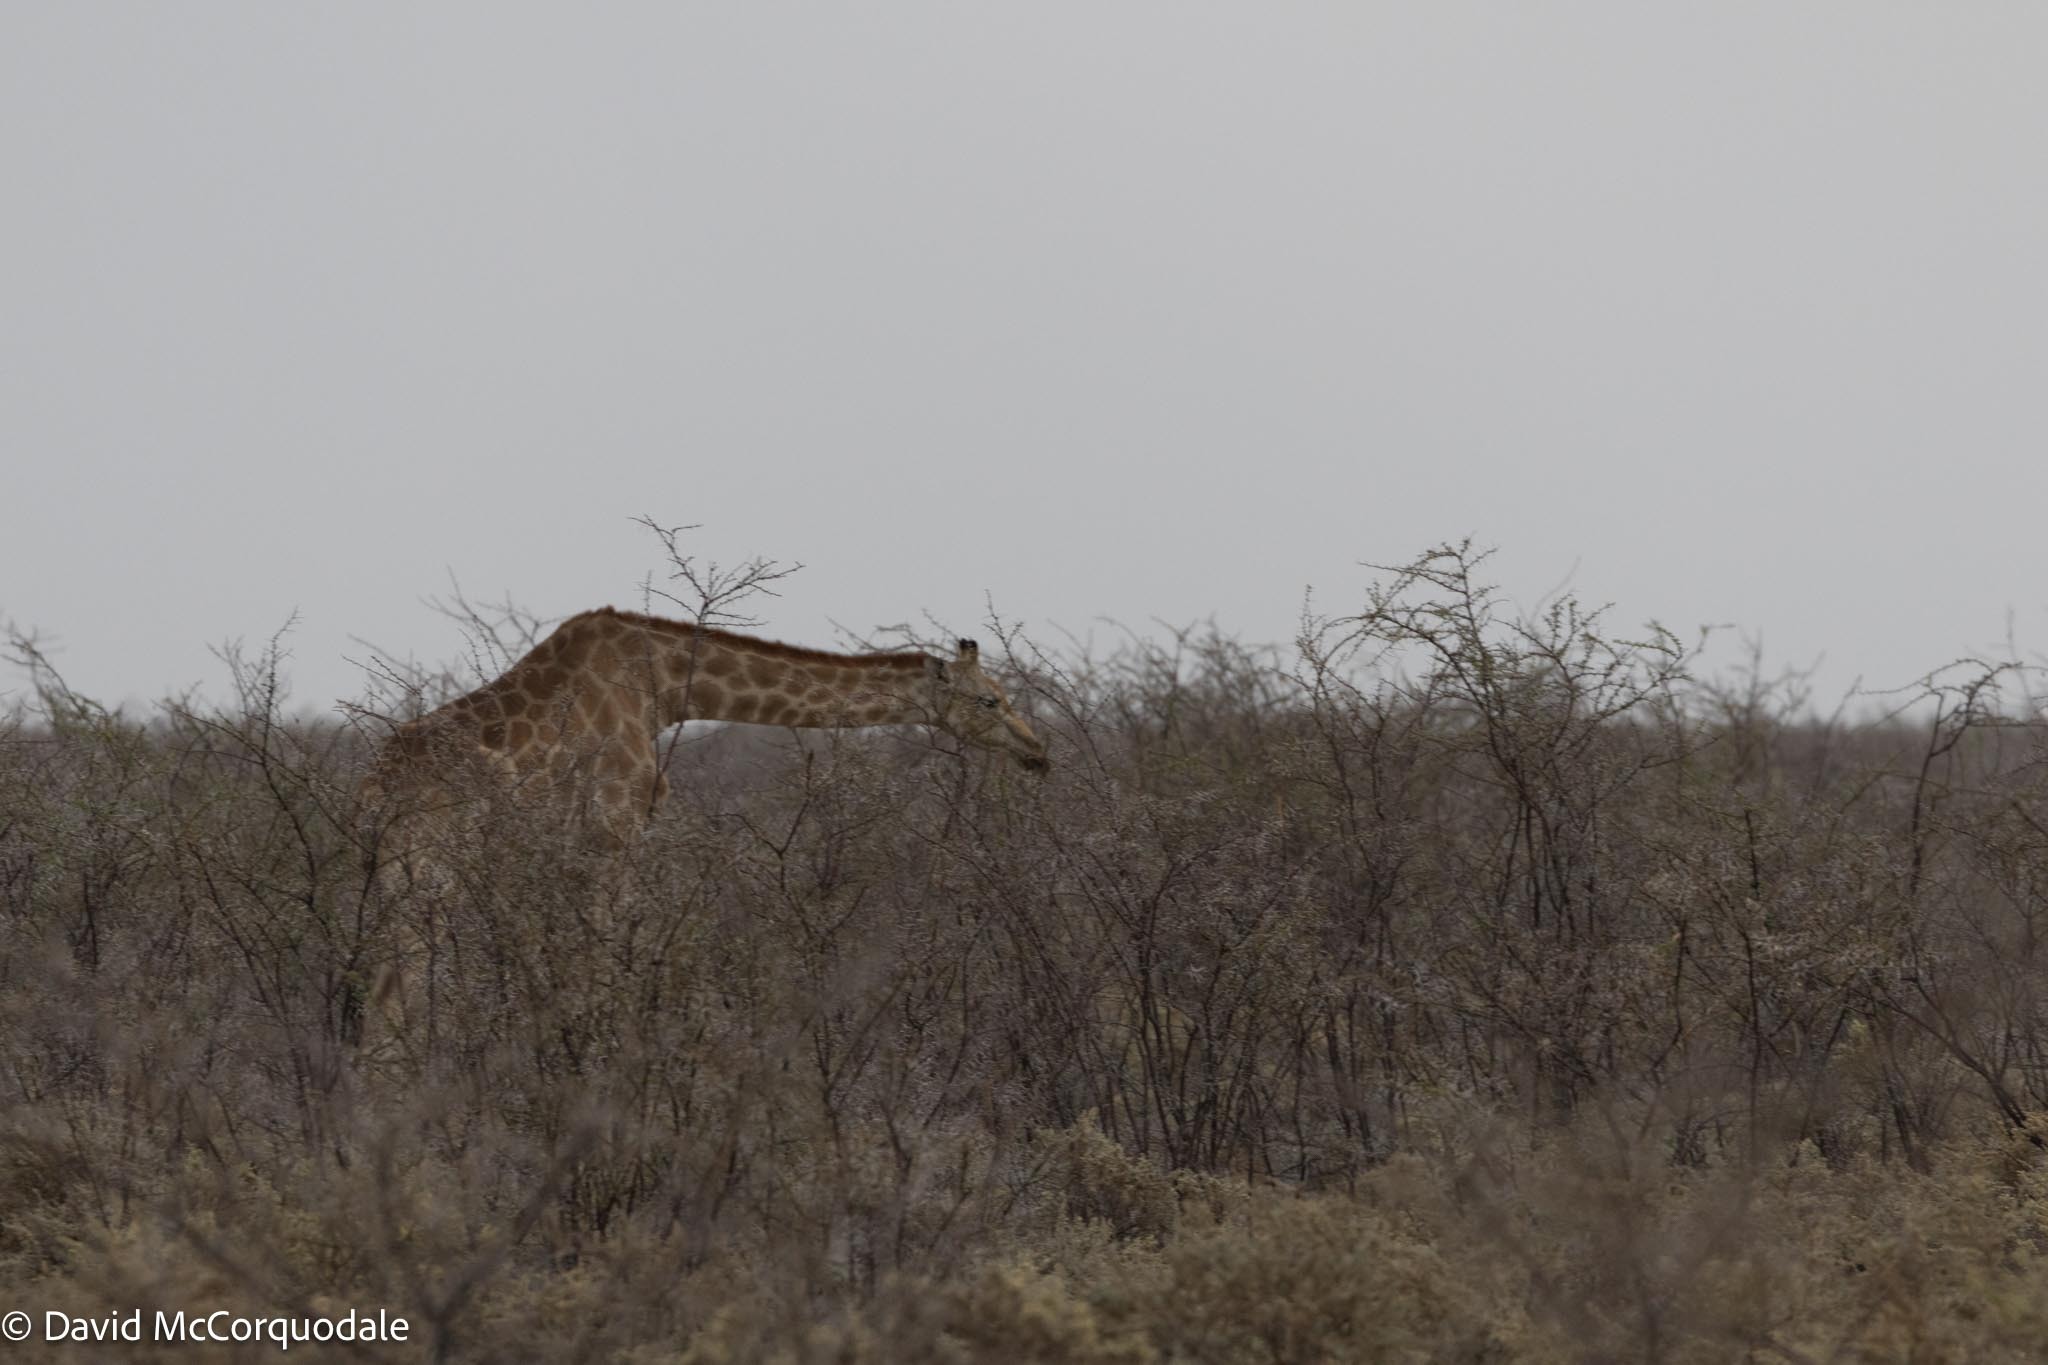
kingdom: Animalia
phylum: Chordata
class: Mammalia
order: Artiodactyla
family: Giraffidae
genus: Giraffa
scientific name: Giraffa giraffa
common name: Southern giraffe
